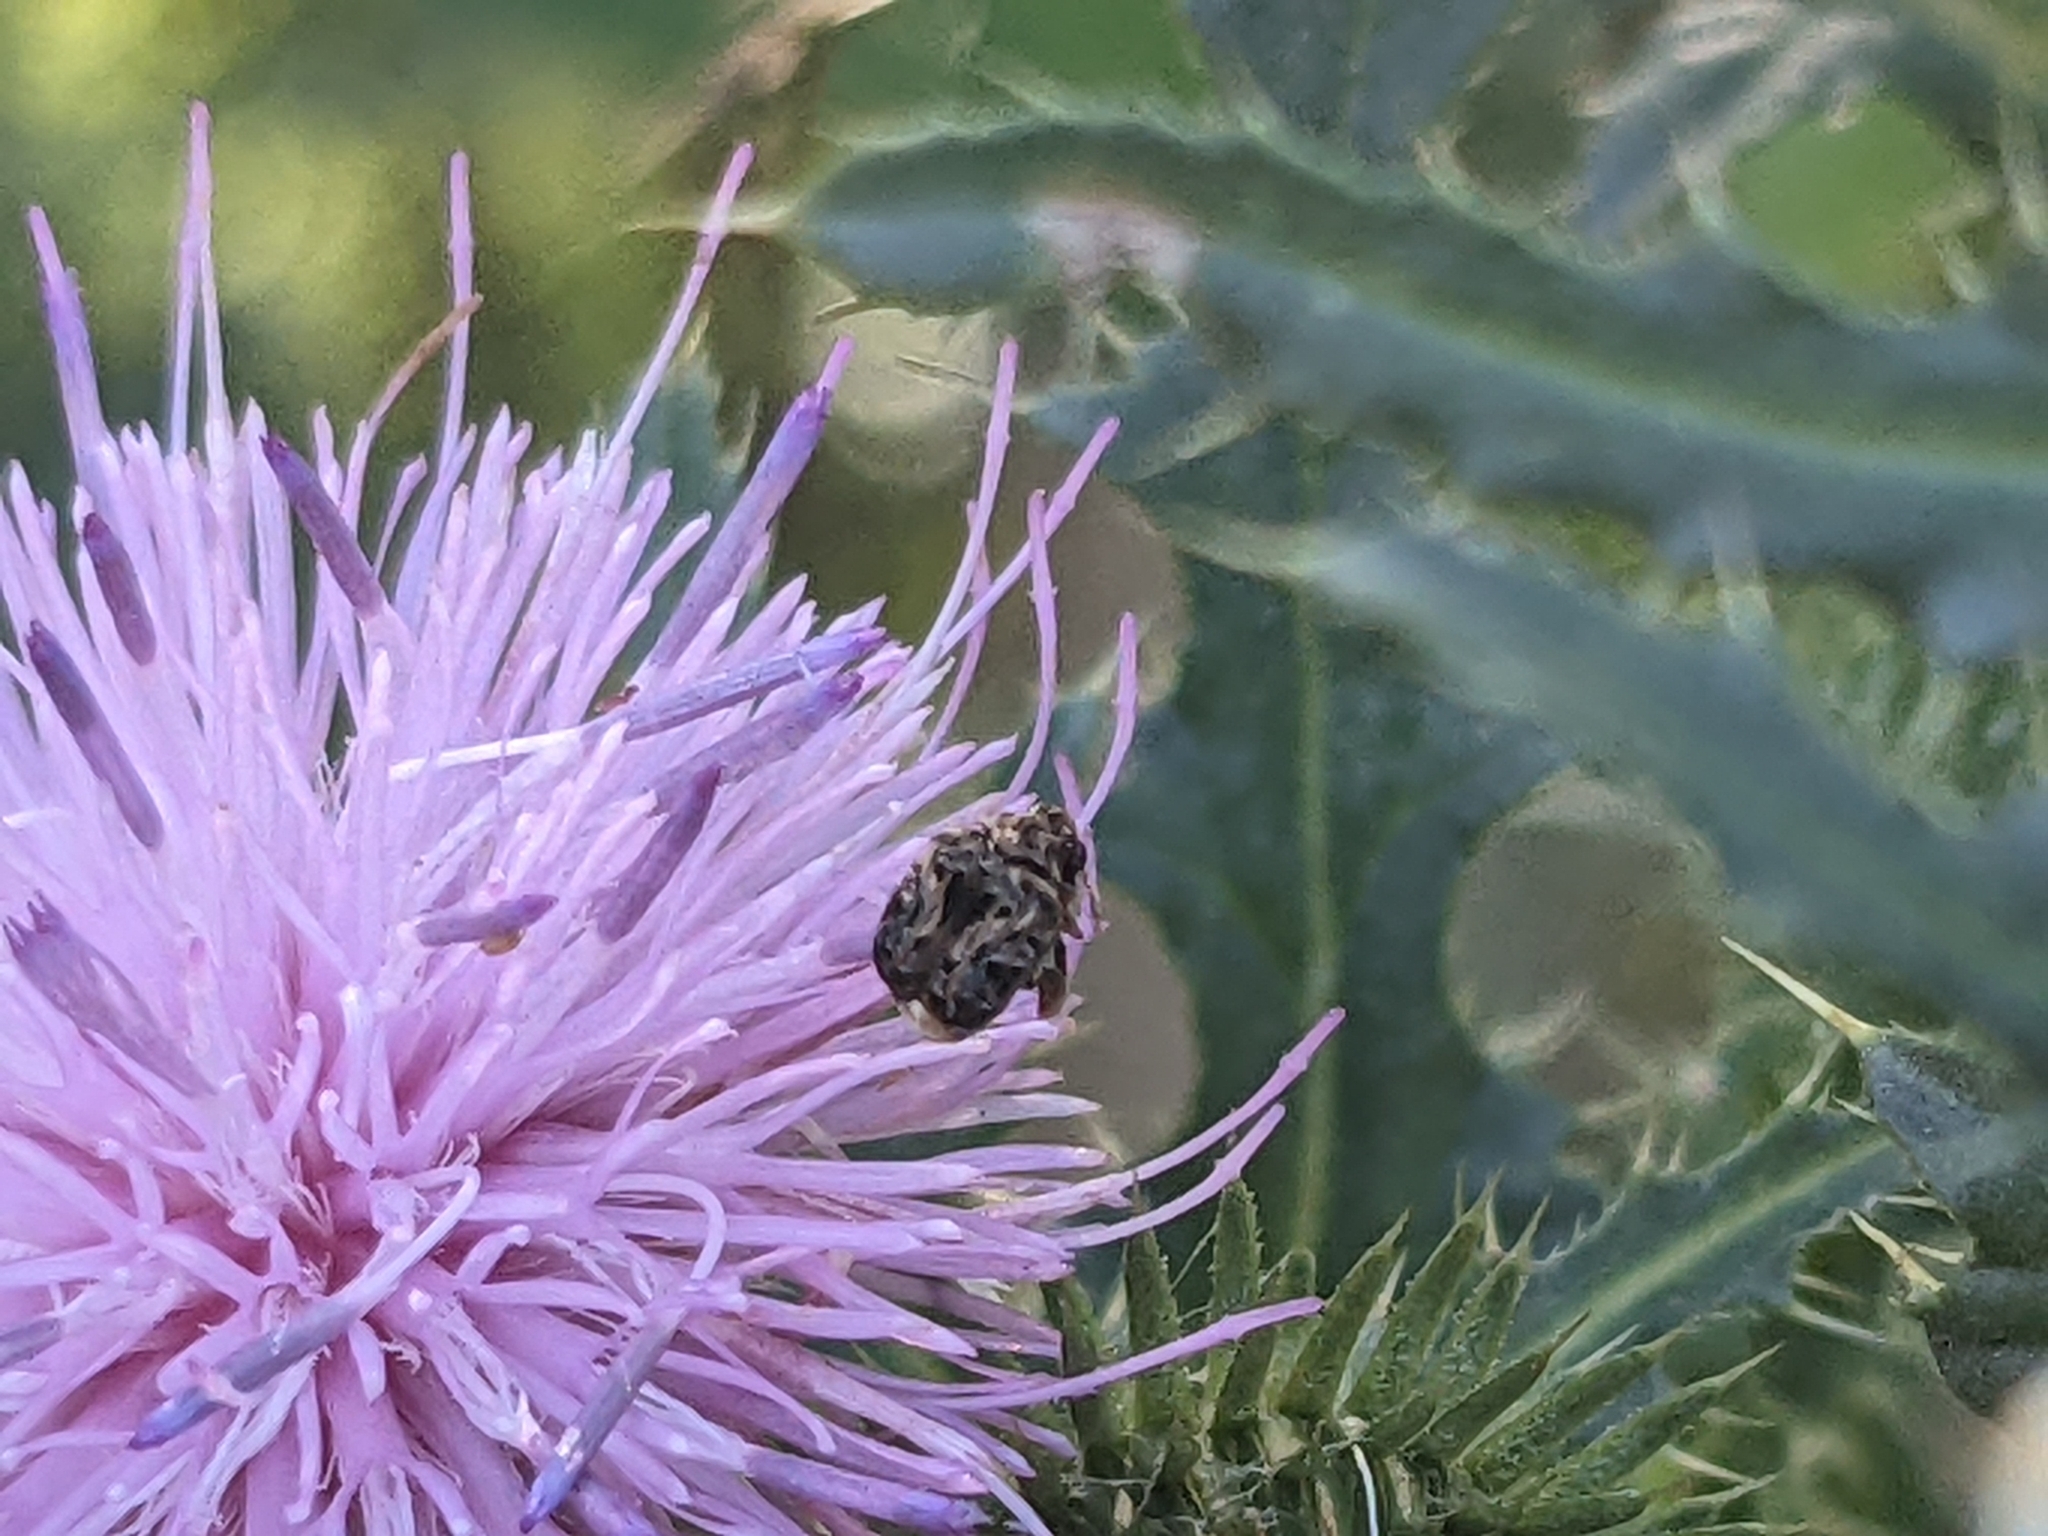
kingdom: Animalia
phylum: Arthropoda
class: Insecta
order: Coleoptera
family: Chrysomelidae
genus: Gibbobruchus
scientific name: Gibbobruchus mimus
